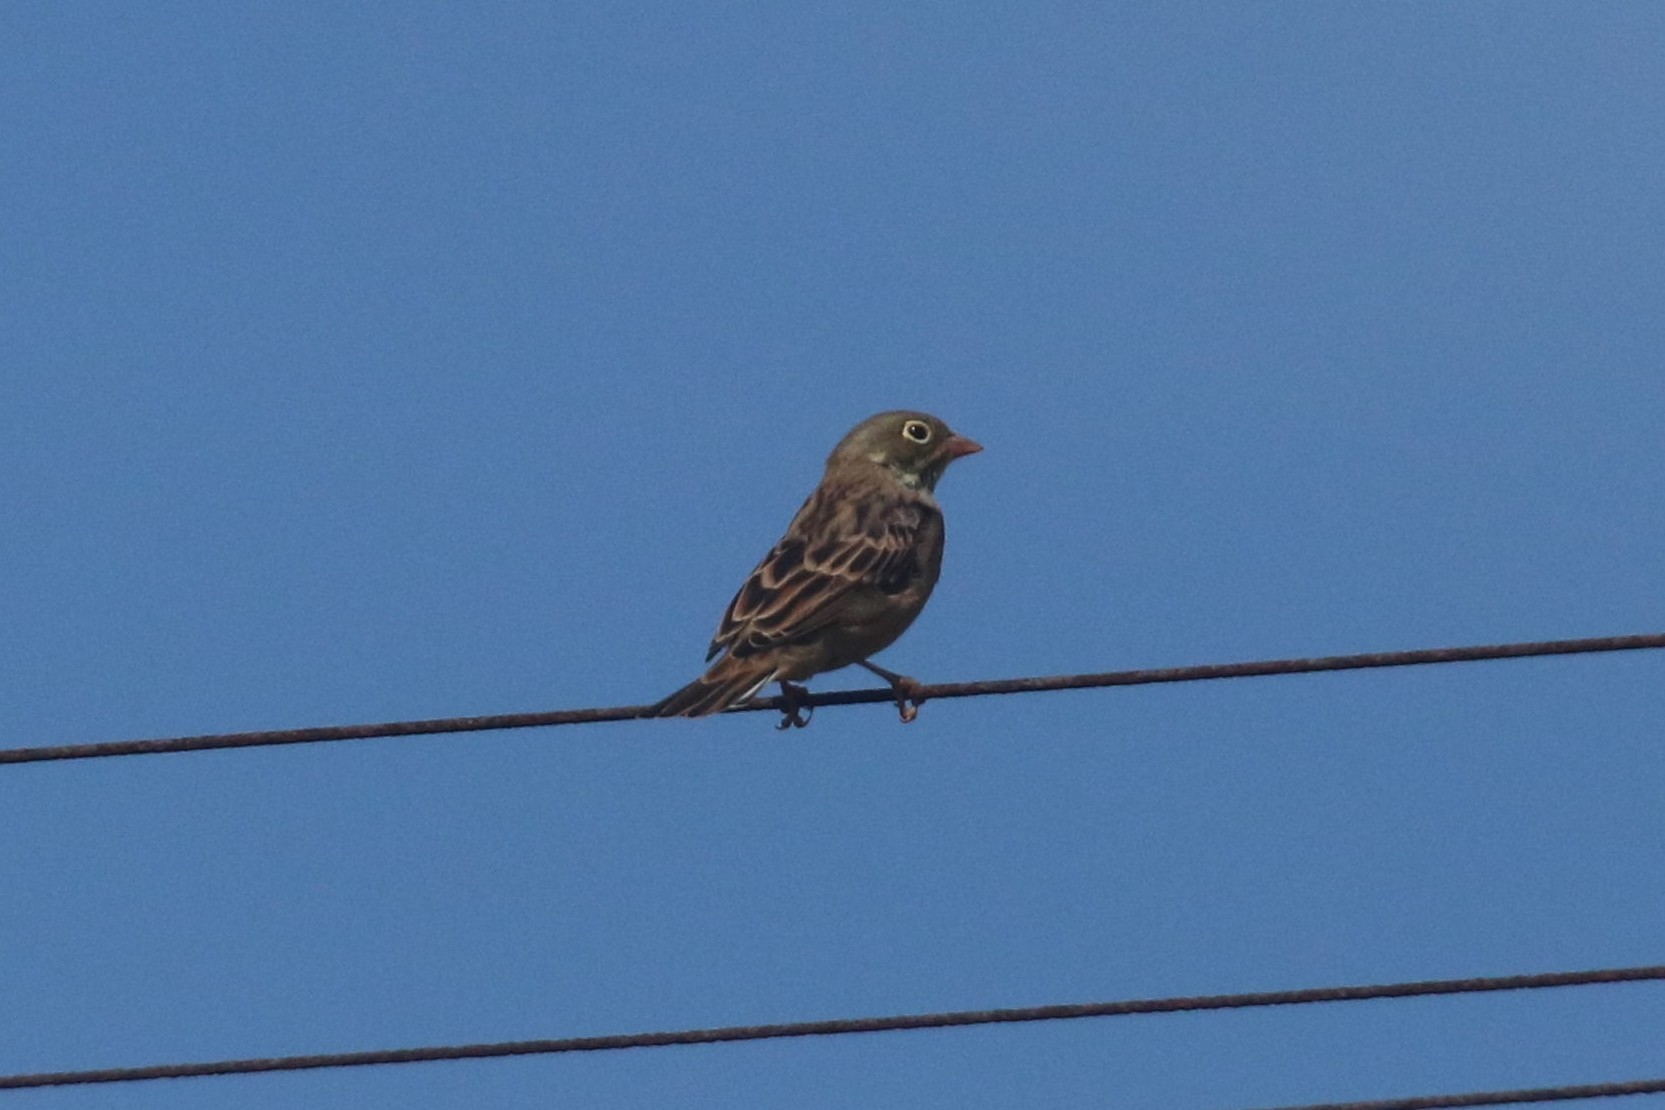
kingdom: Animalia
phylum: Chordata
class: Aves
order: Passeriformes
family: Emberizidae
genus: Emberiza
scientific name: Emberiza hortulana
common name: Ortolan bunting
